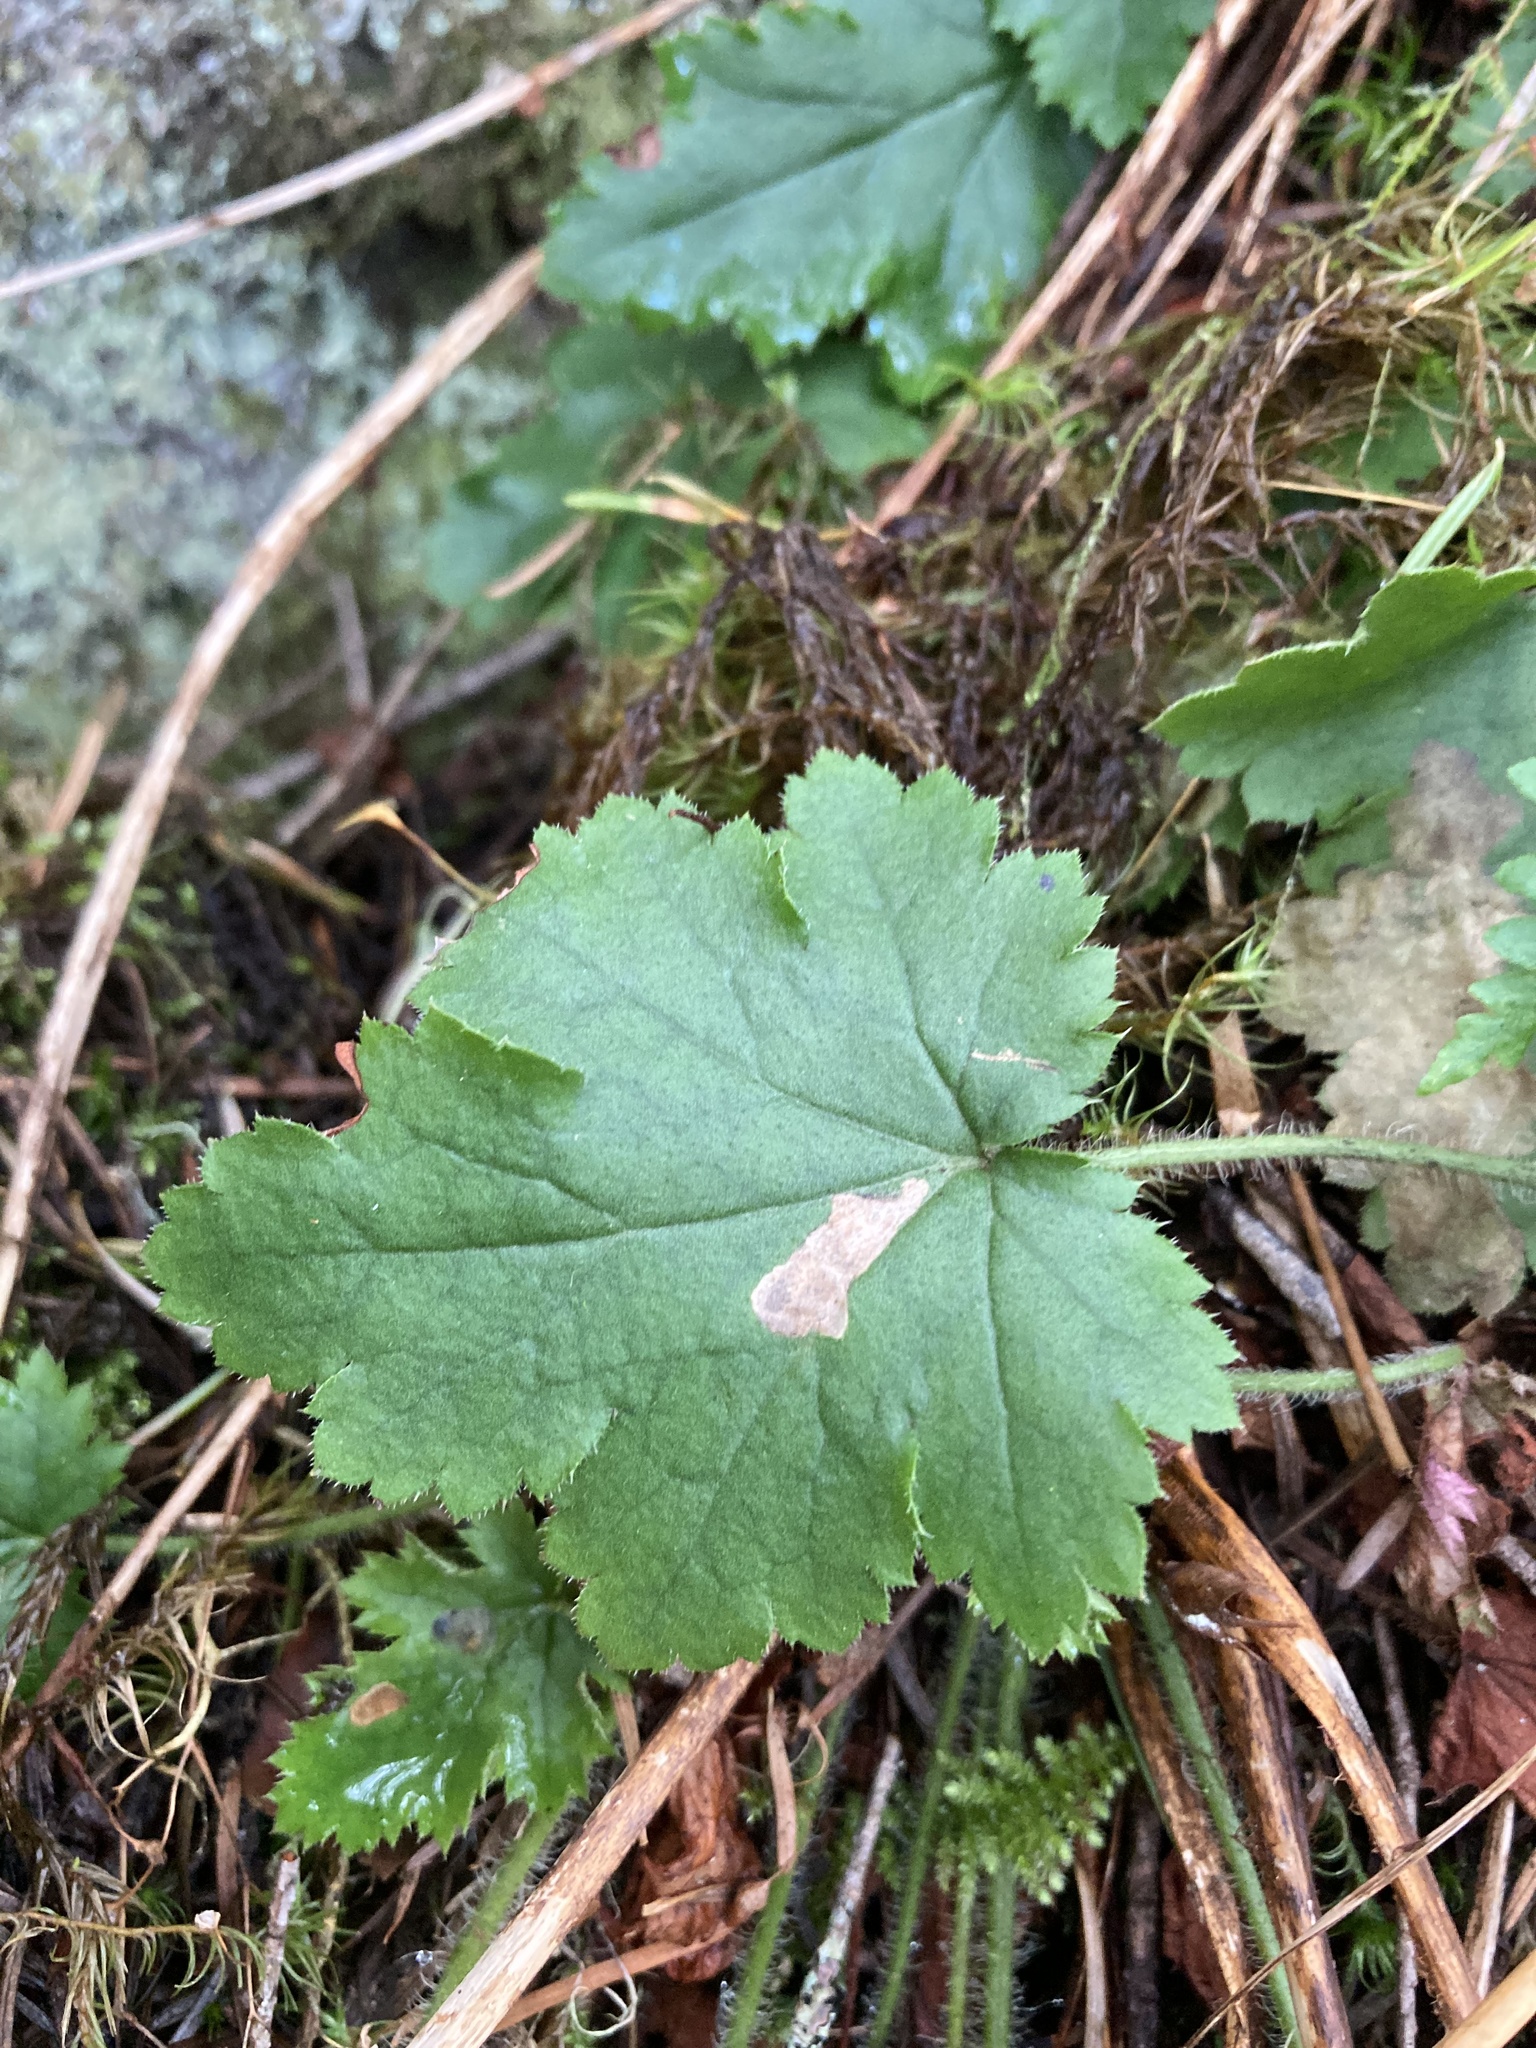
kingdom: Plantae
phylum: Tracheophyta
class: Magnoliopsida
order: Saxifragales
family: Saxifragaceae
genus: Heuchera
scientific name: Heuchera micrantha
